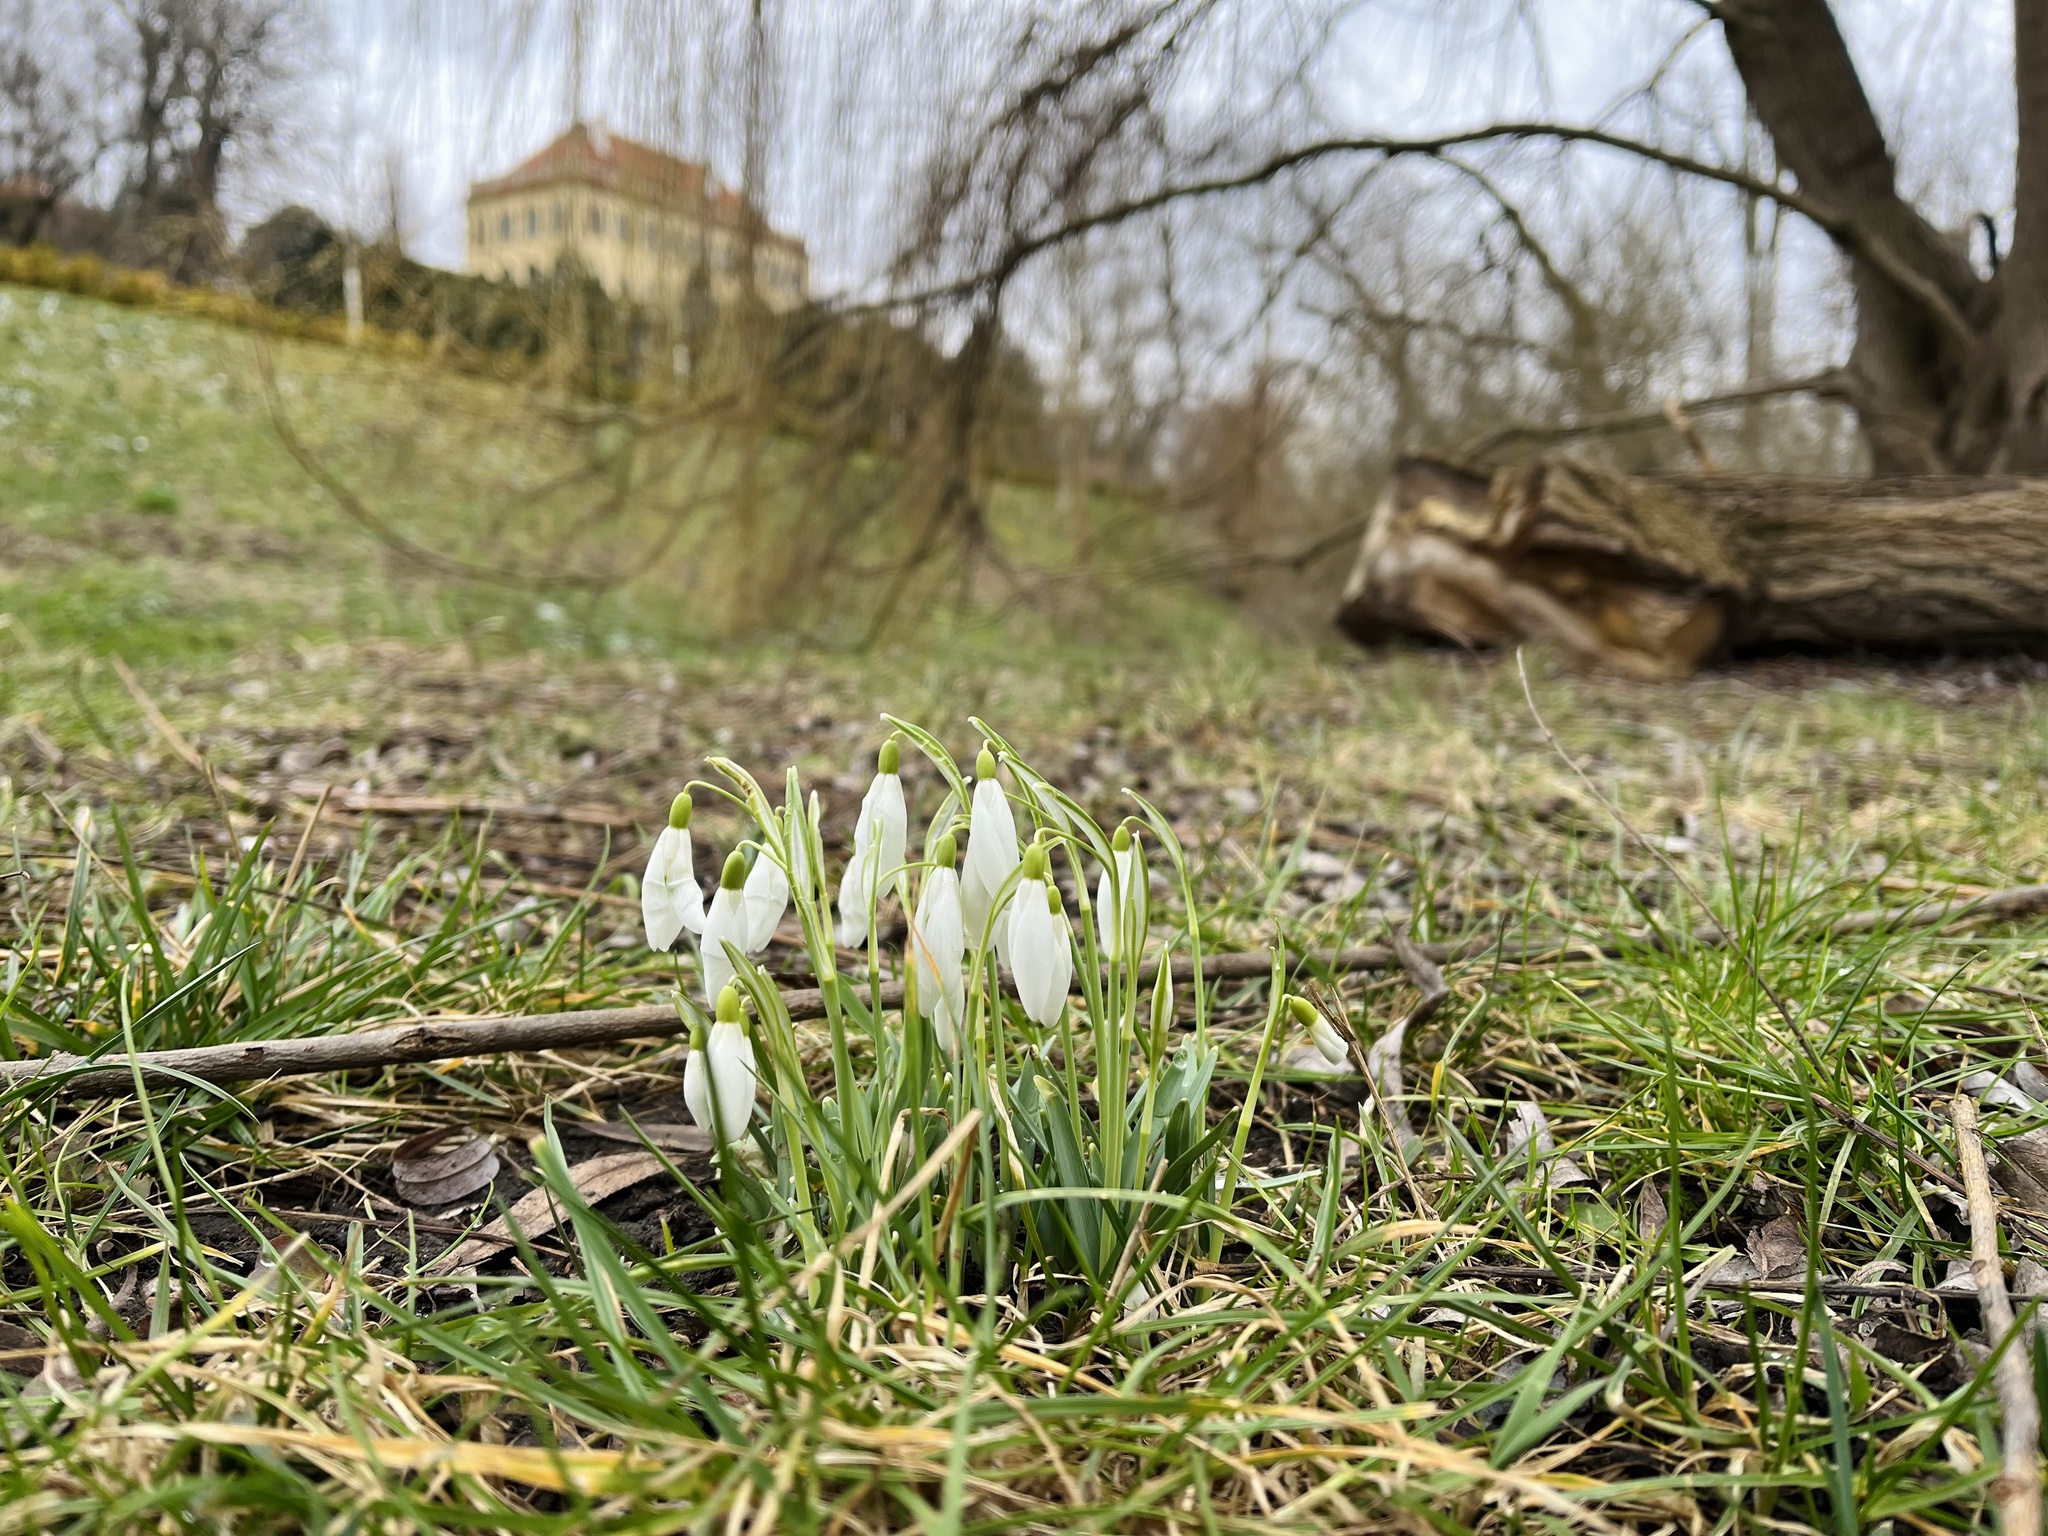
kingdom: Plantae
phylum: Tracheophyta
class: Liliopsida
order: Asparagales
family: Amaryllidaceae
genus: Galanthus
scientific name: Galanthus nivalis
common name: Snowdrop
